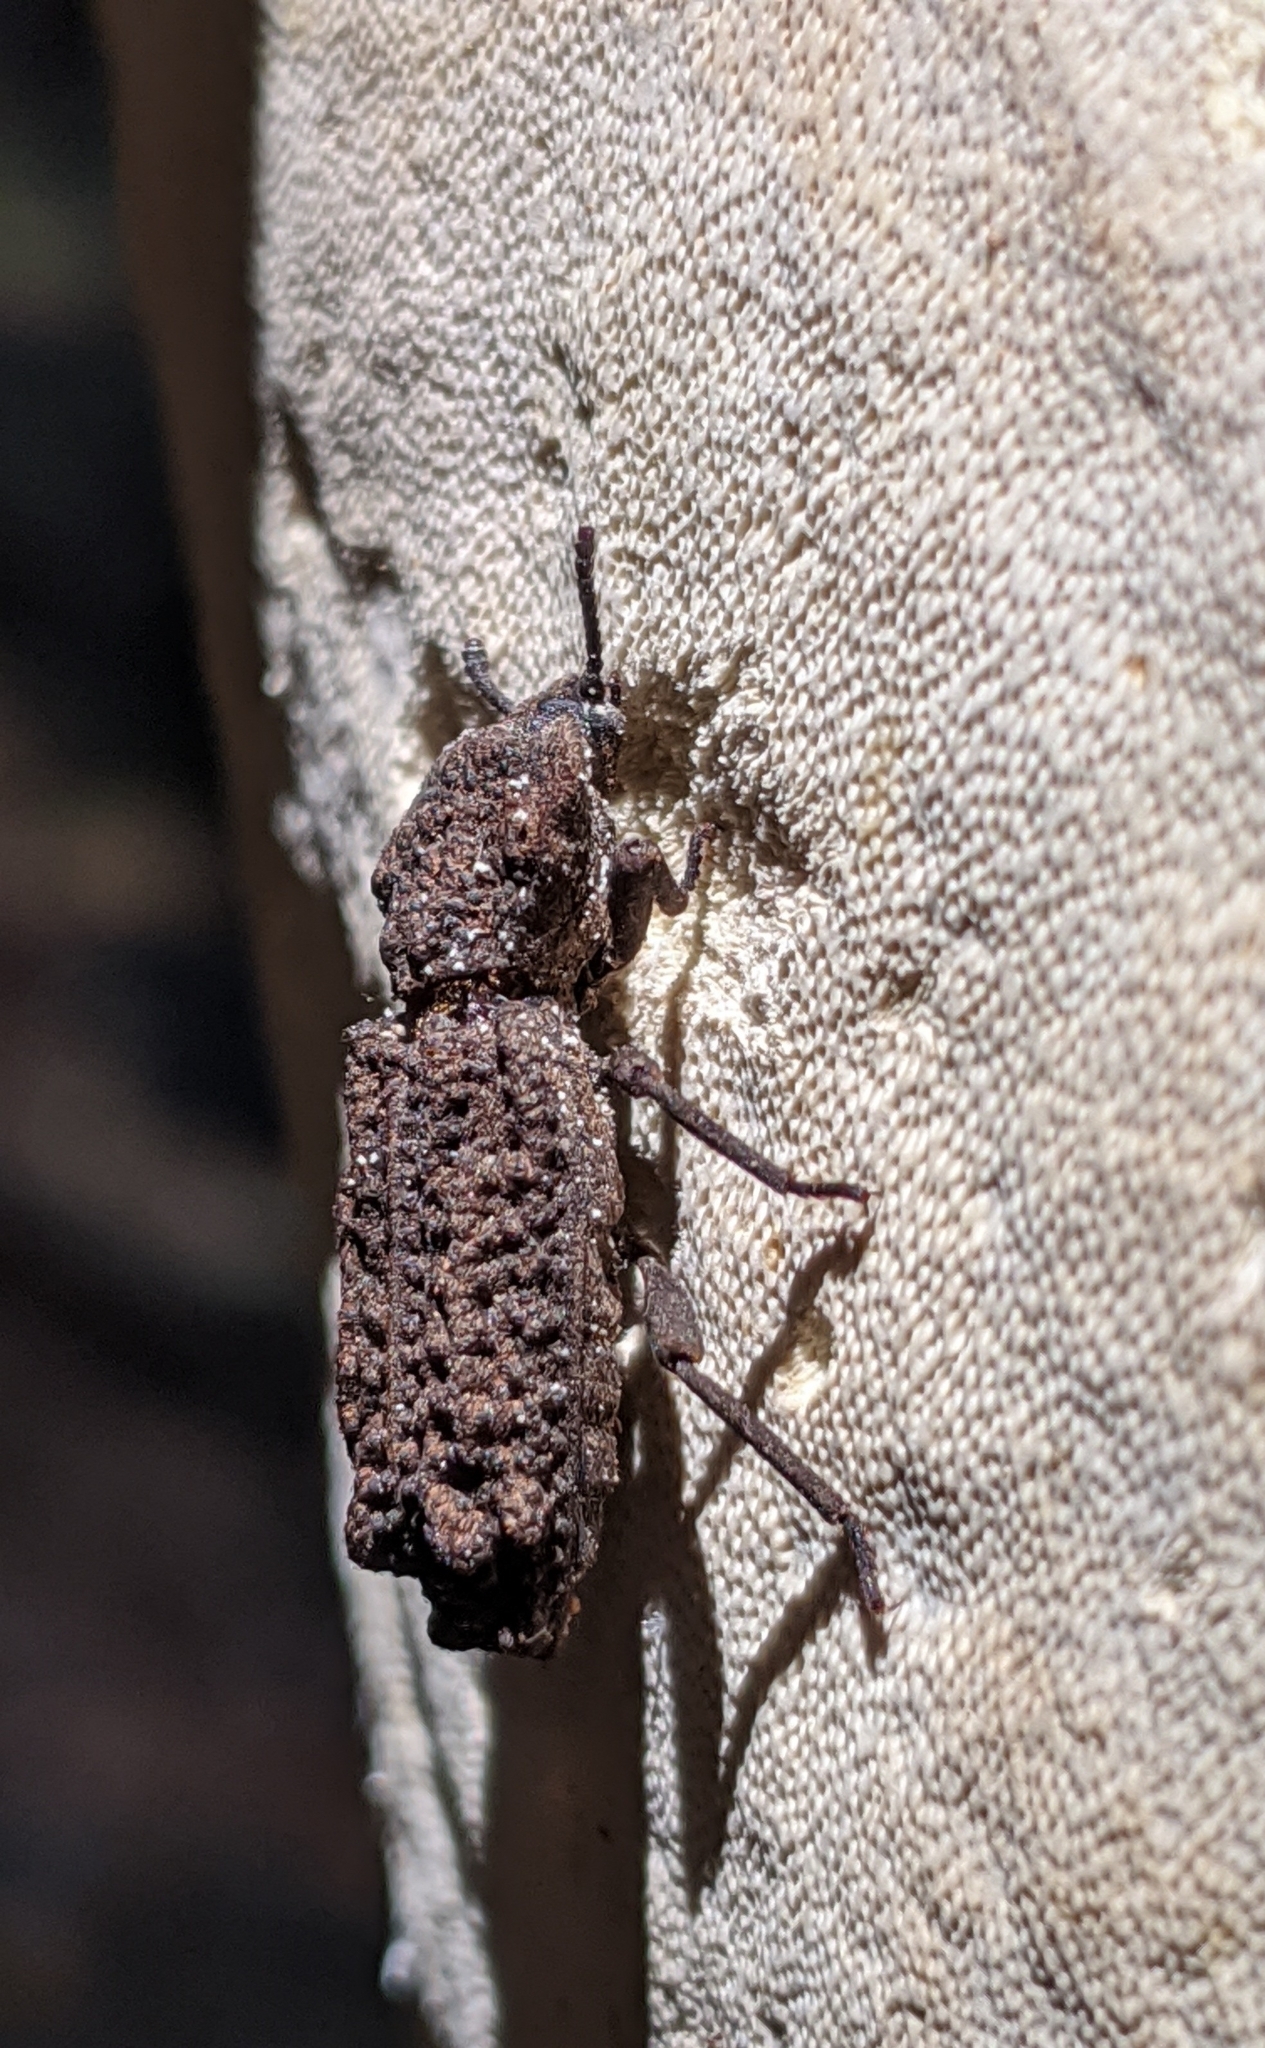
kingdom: Animalia
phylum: Arthropoda
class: Insecta
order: Coleoptera
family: Zopheridae
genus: Phellopsis
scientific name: Phellopsis porcata
